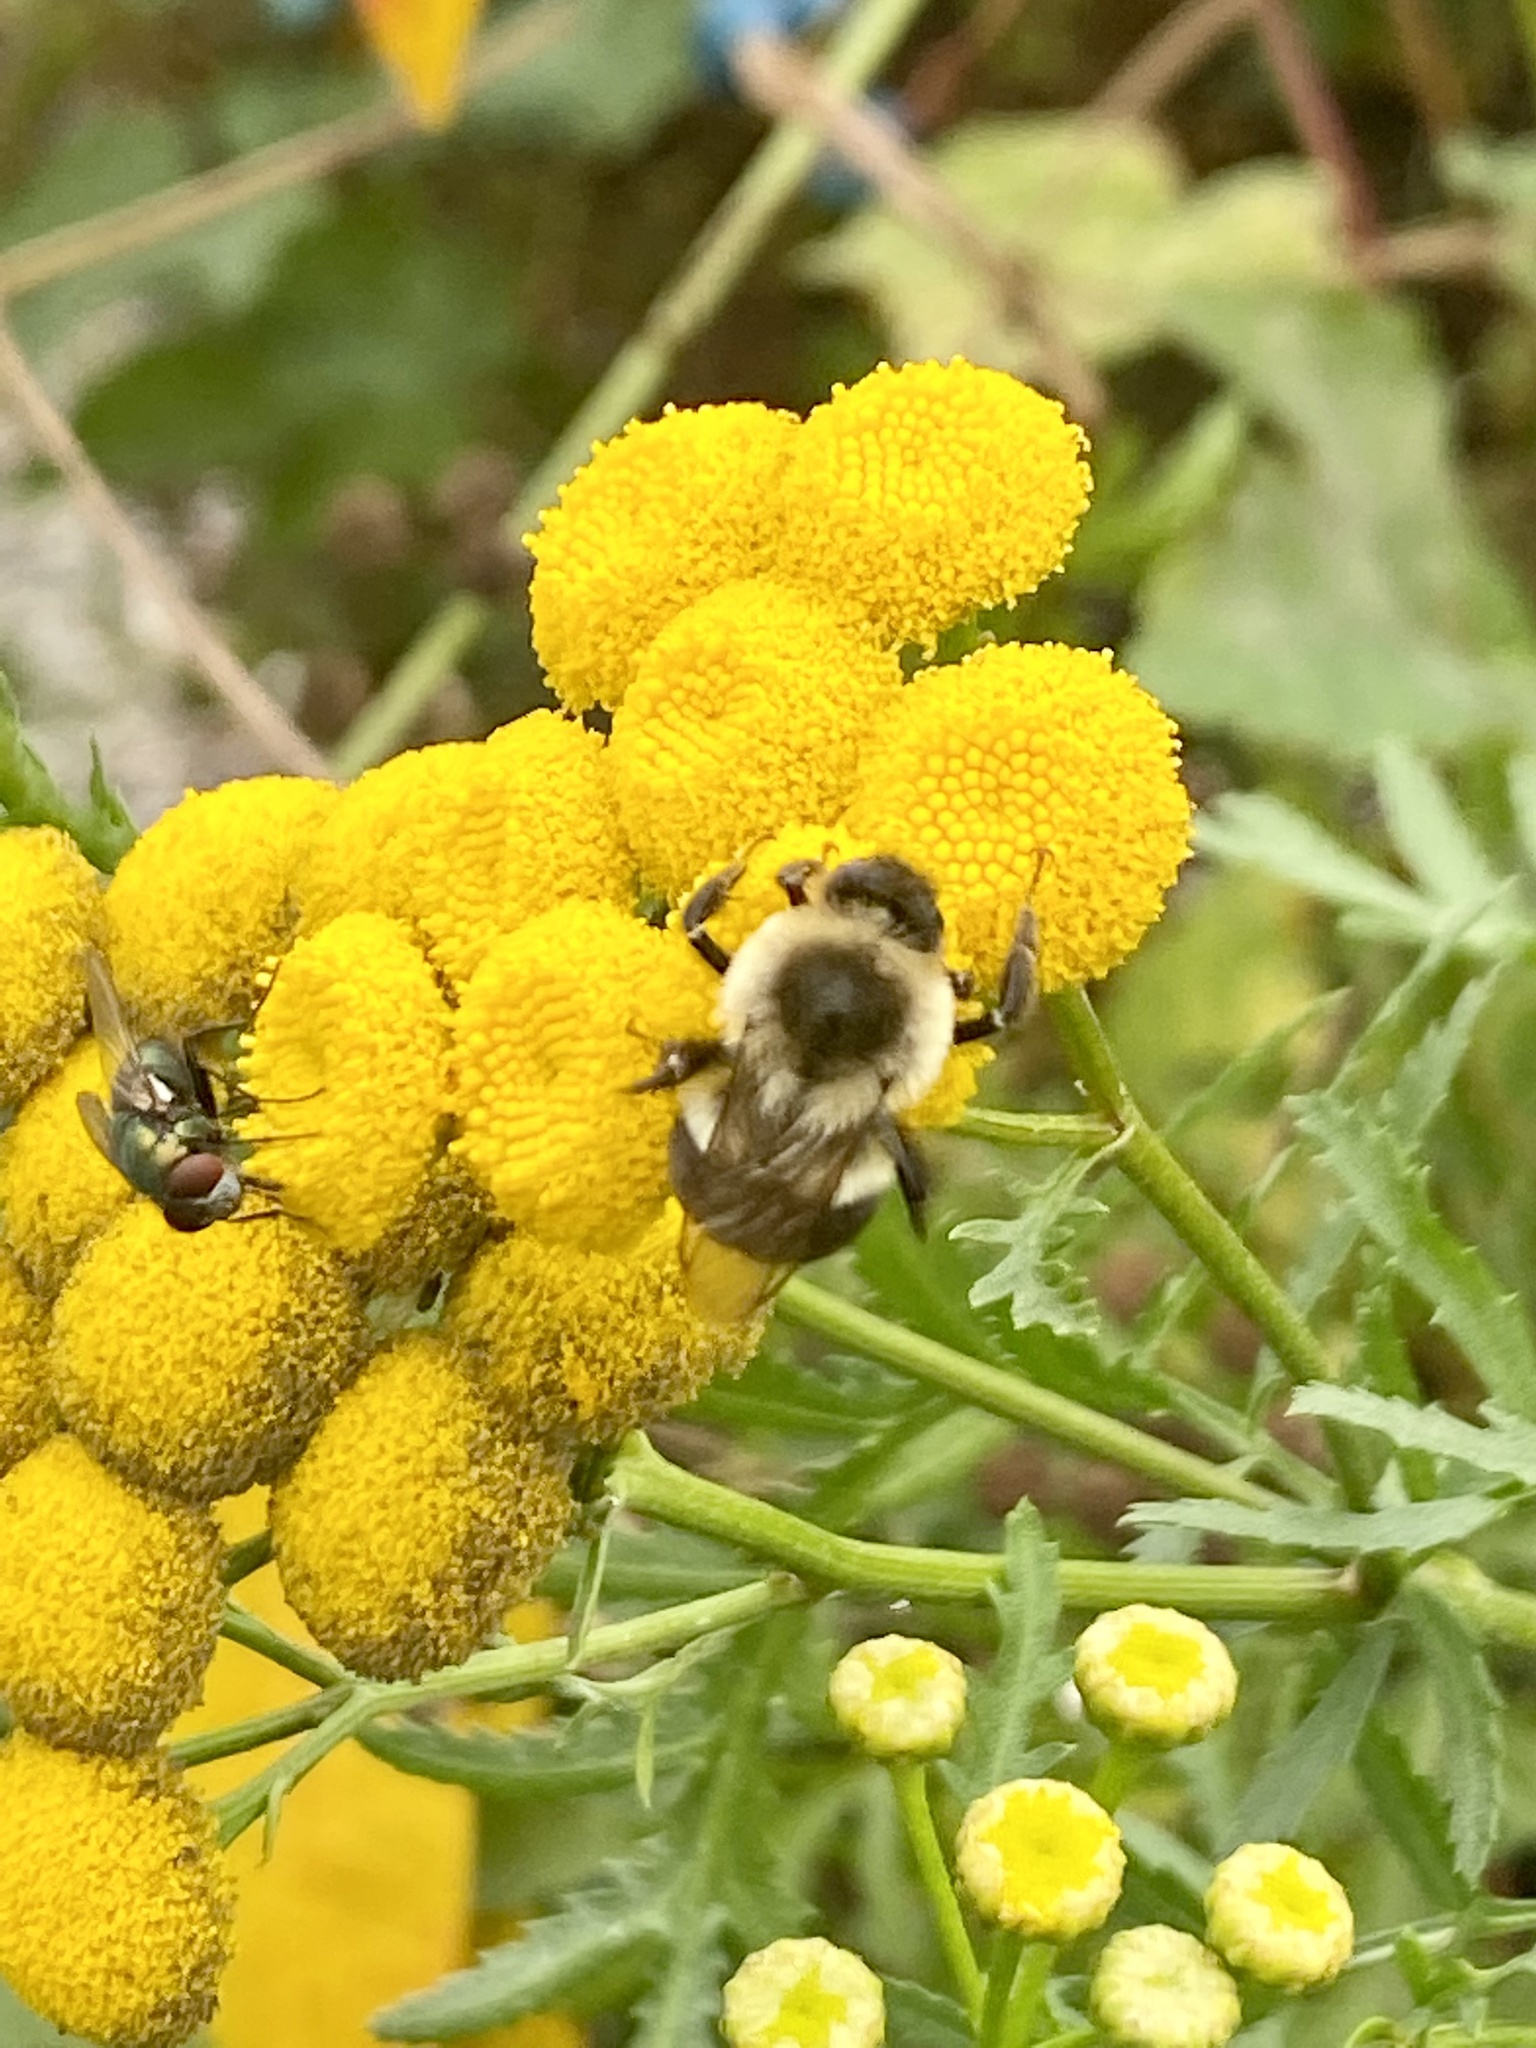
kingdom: Animalia
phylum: Arthropoda
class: Insecta
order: Hymenoptera
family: Apidae
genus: Bombus
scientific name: Bombus impatiens
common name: Common eastern bumble bee
